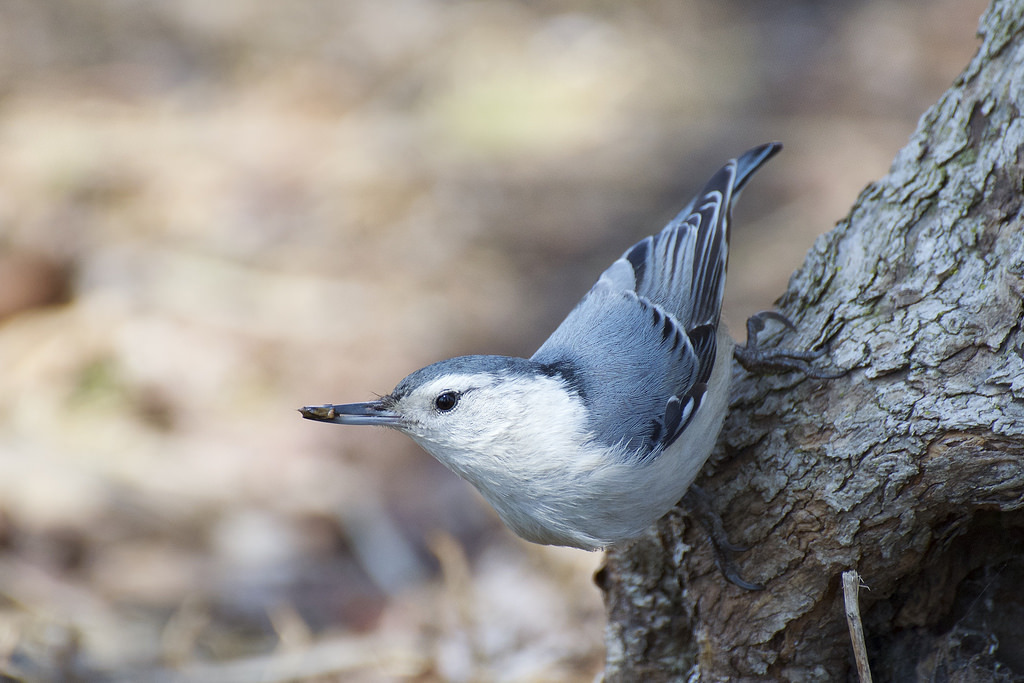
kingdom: Animalia
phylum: Chordata
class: Aves
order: Passeriformes
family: Sittidae
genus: Sitta
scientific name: Sitta carolinensis
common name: White-breasted nuthatch
